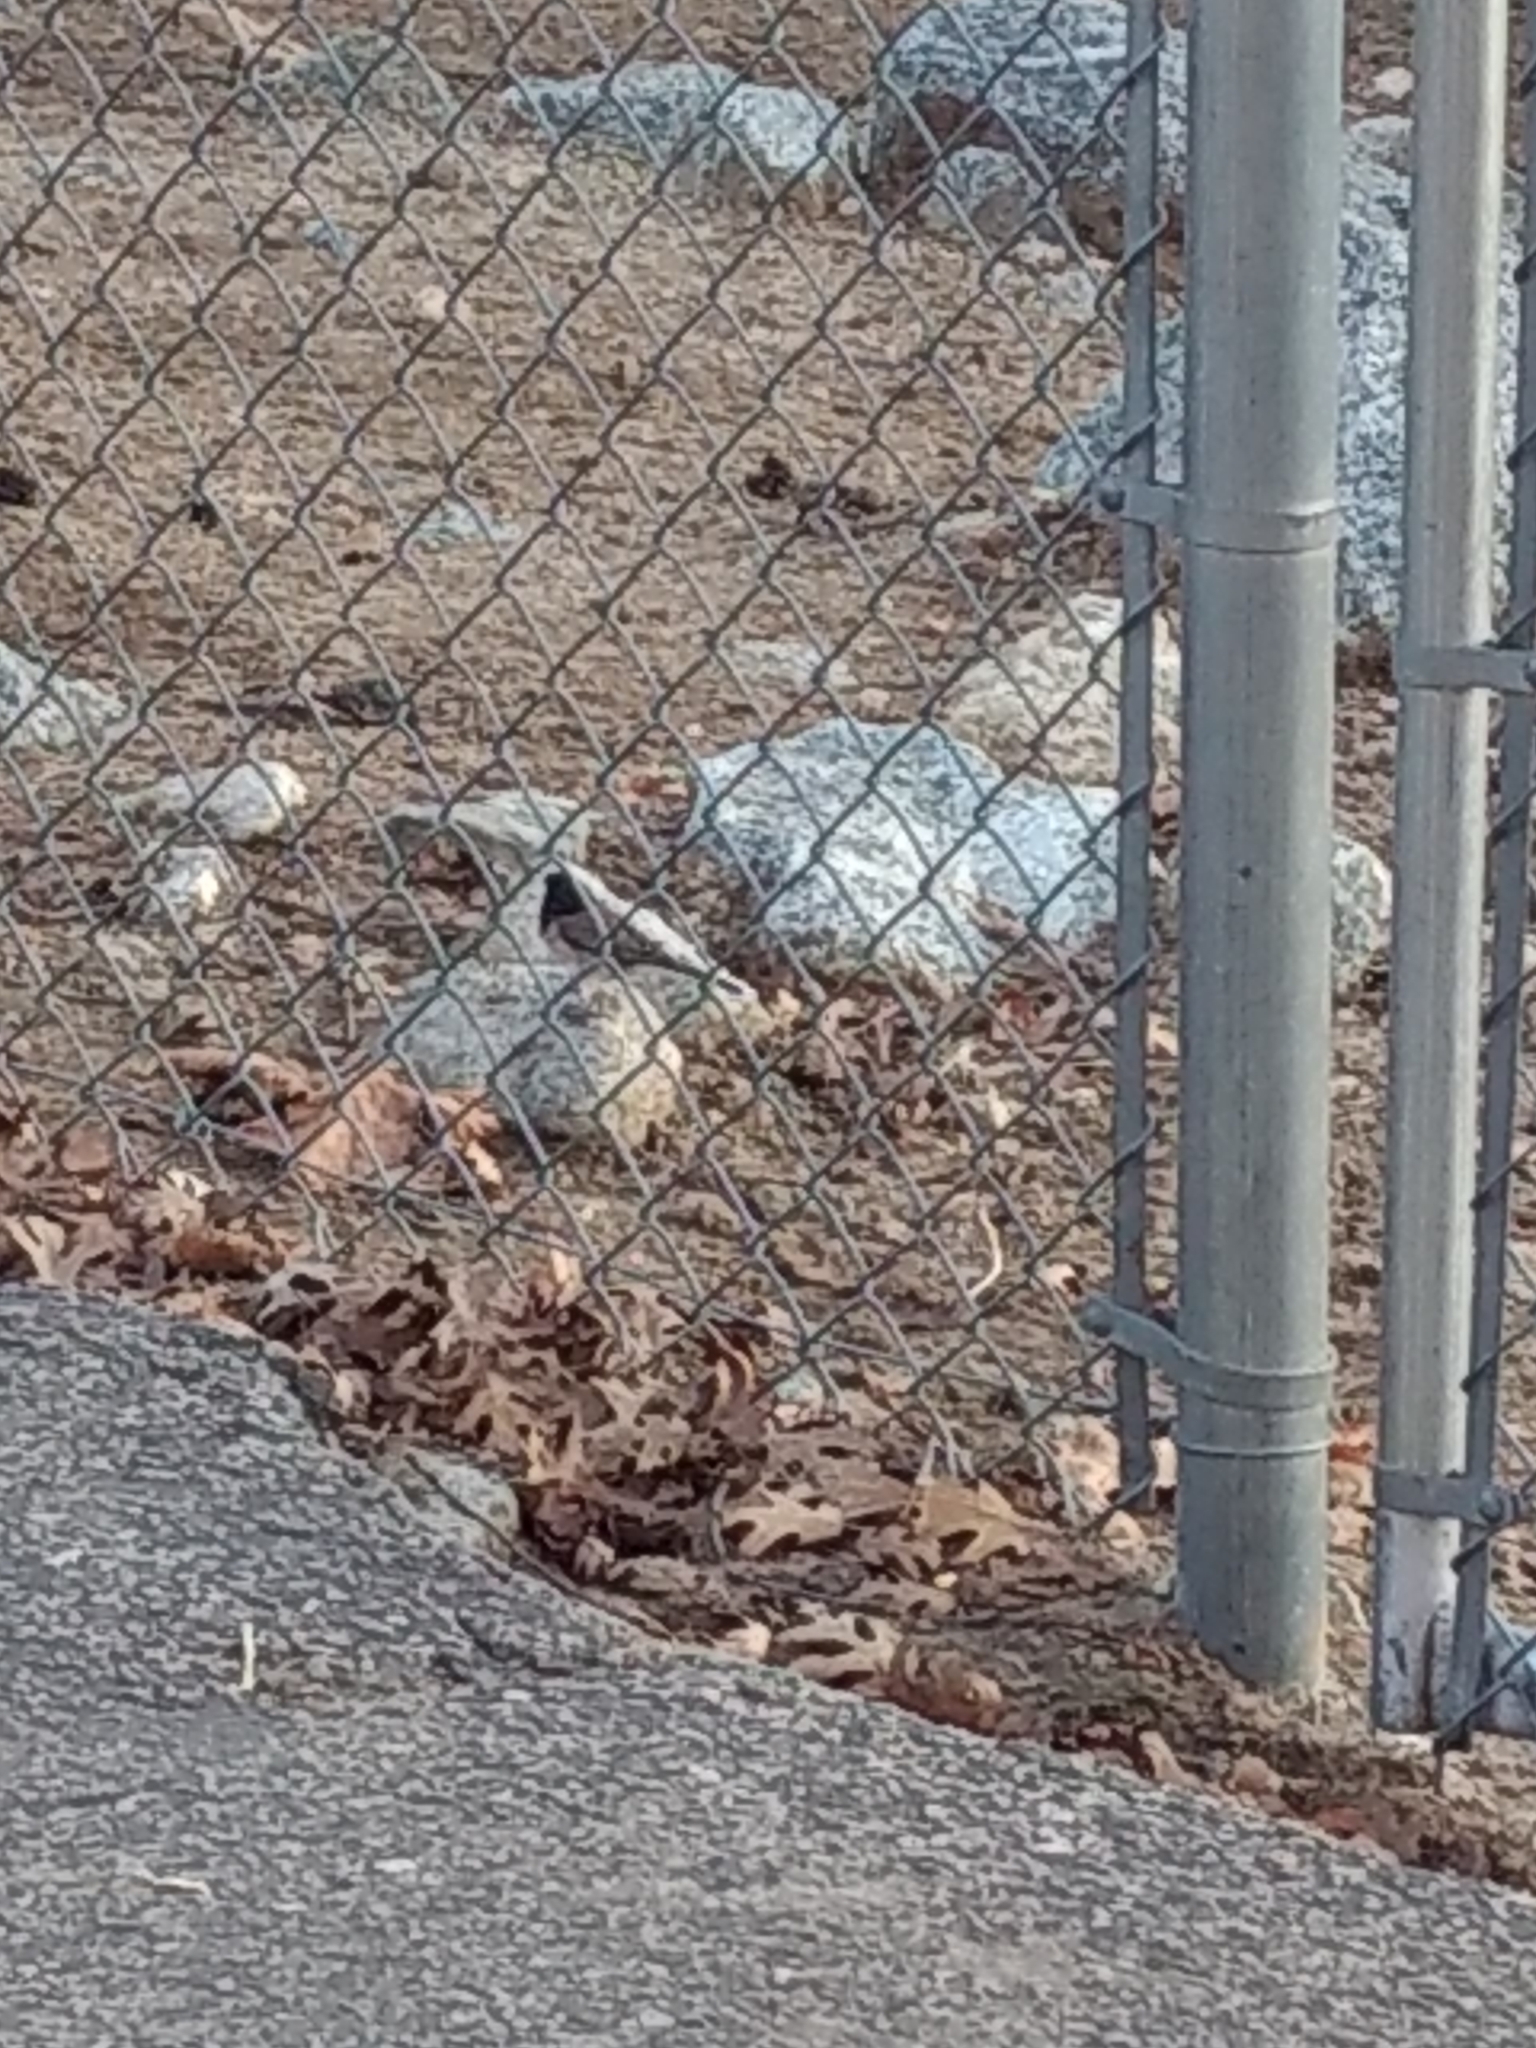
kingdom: Animalia
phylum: Chordata
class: Aves
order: Passeriformes
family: Passerellidae
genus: Junco
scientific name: Junco hyemalis
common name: Dark-eyed junco
